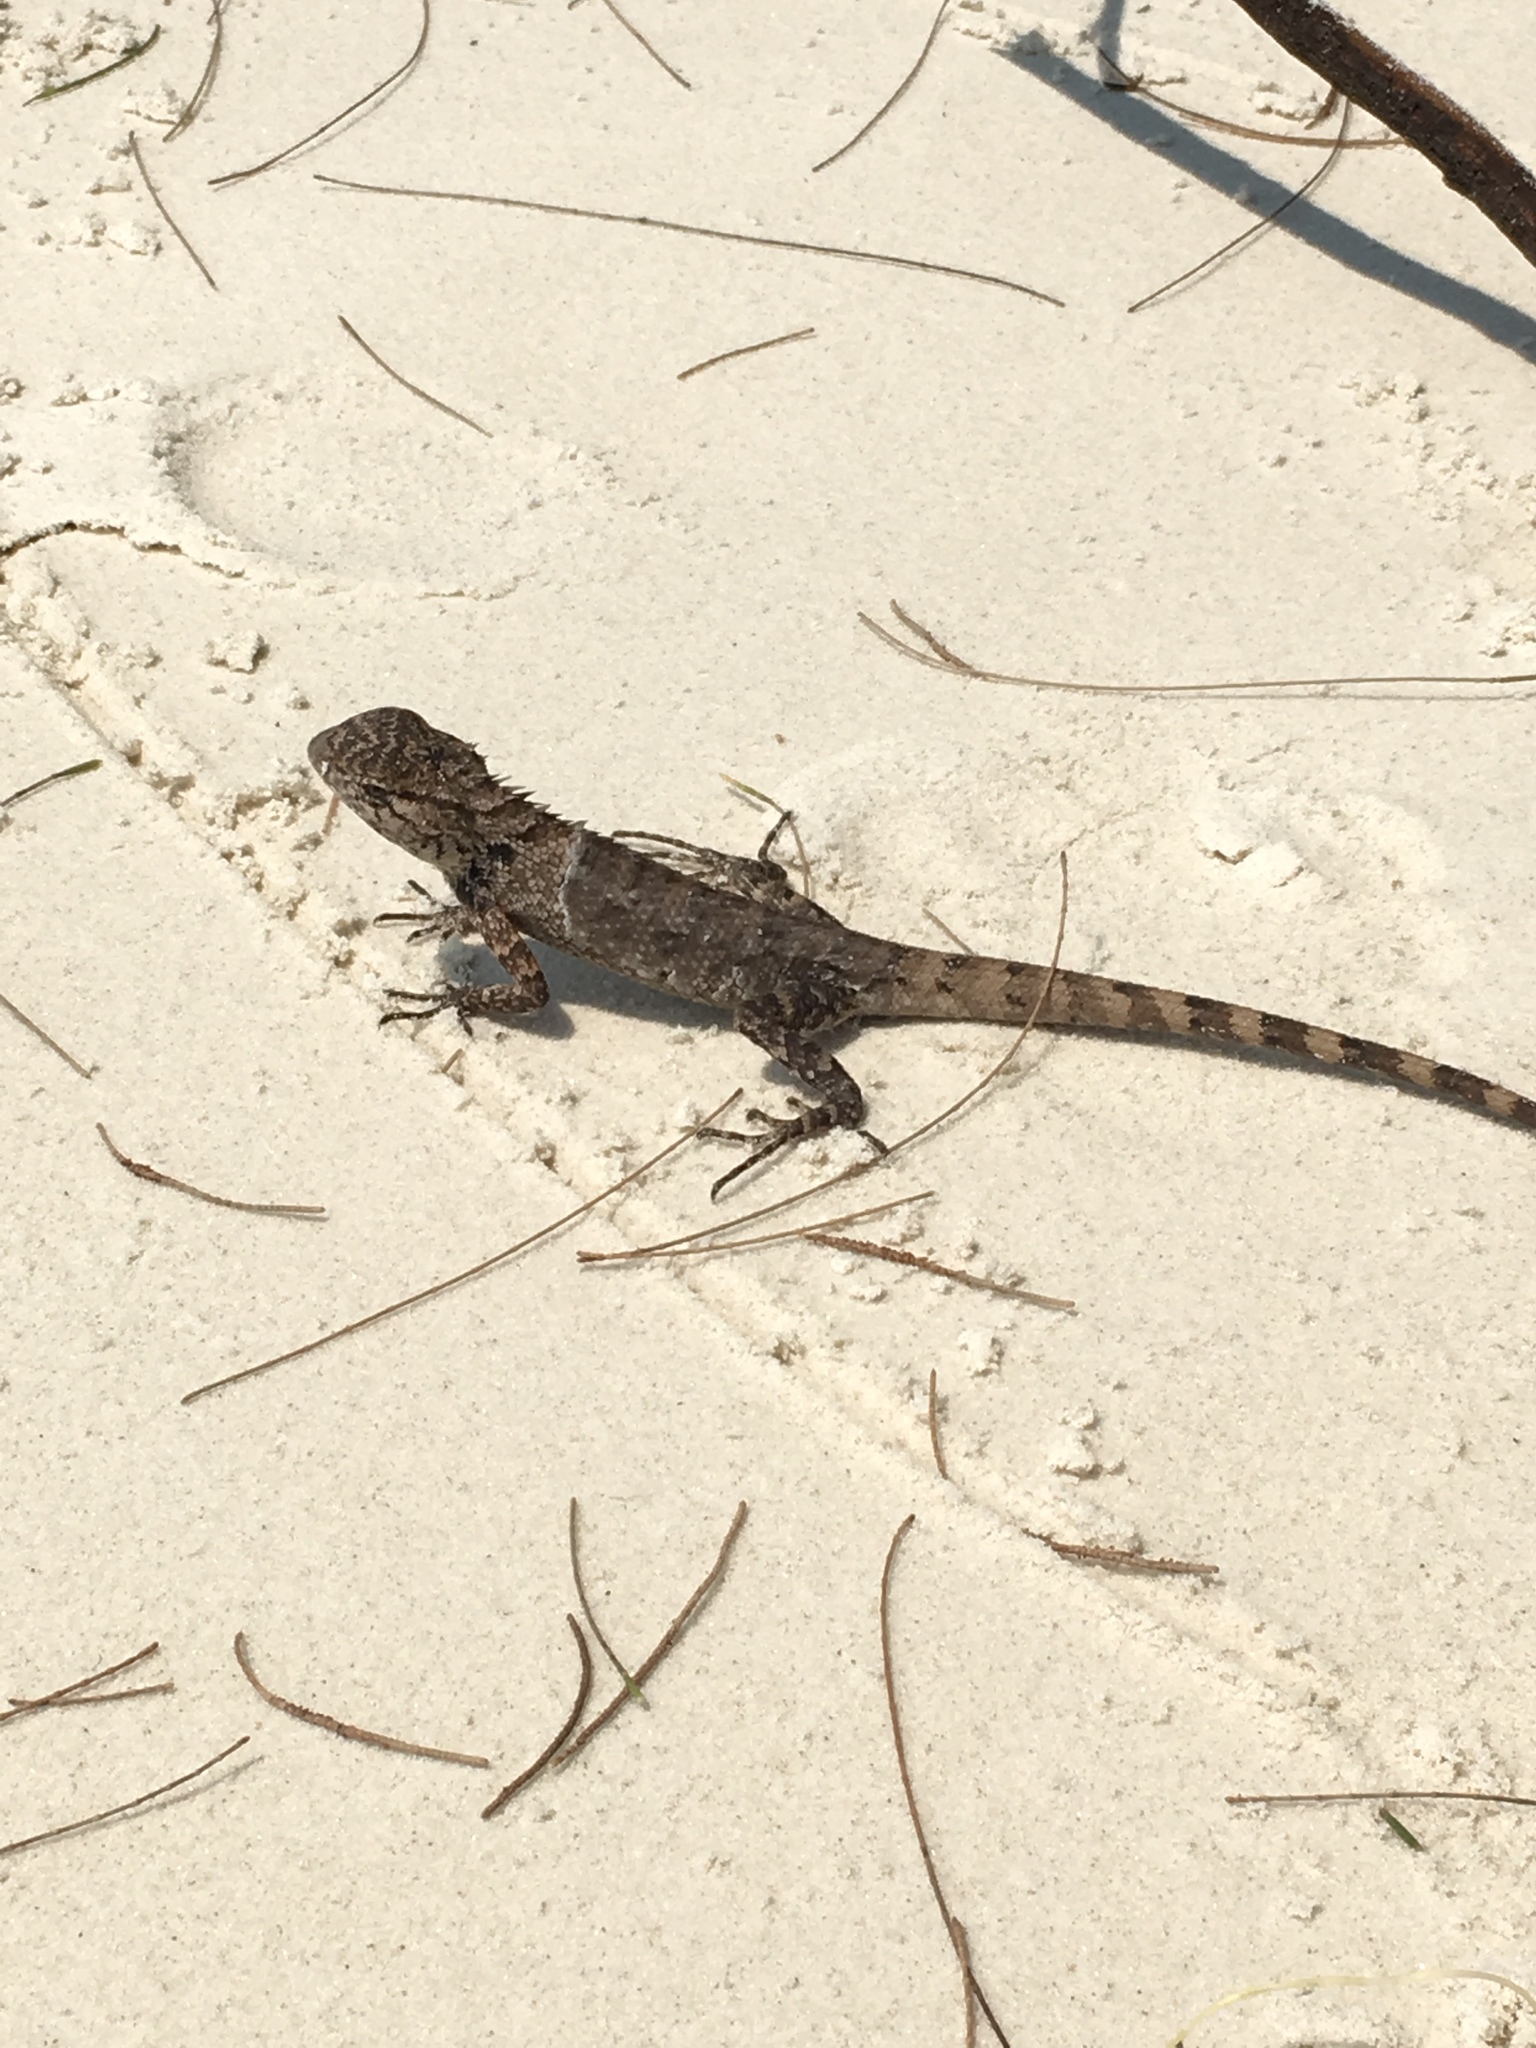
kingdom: Animalia
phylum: Chordata
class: Squamata
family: Agamidae
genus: Calotes
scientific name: Calotes versicolor
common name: Oriental garden lizard
